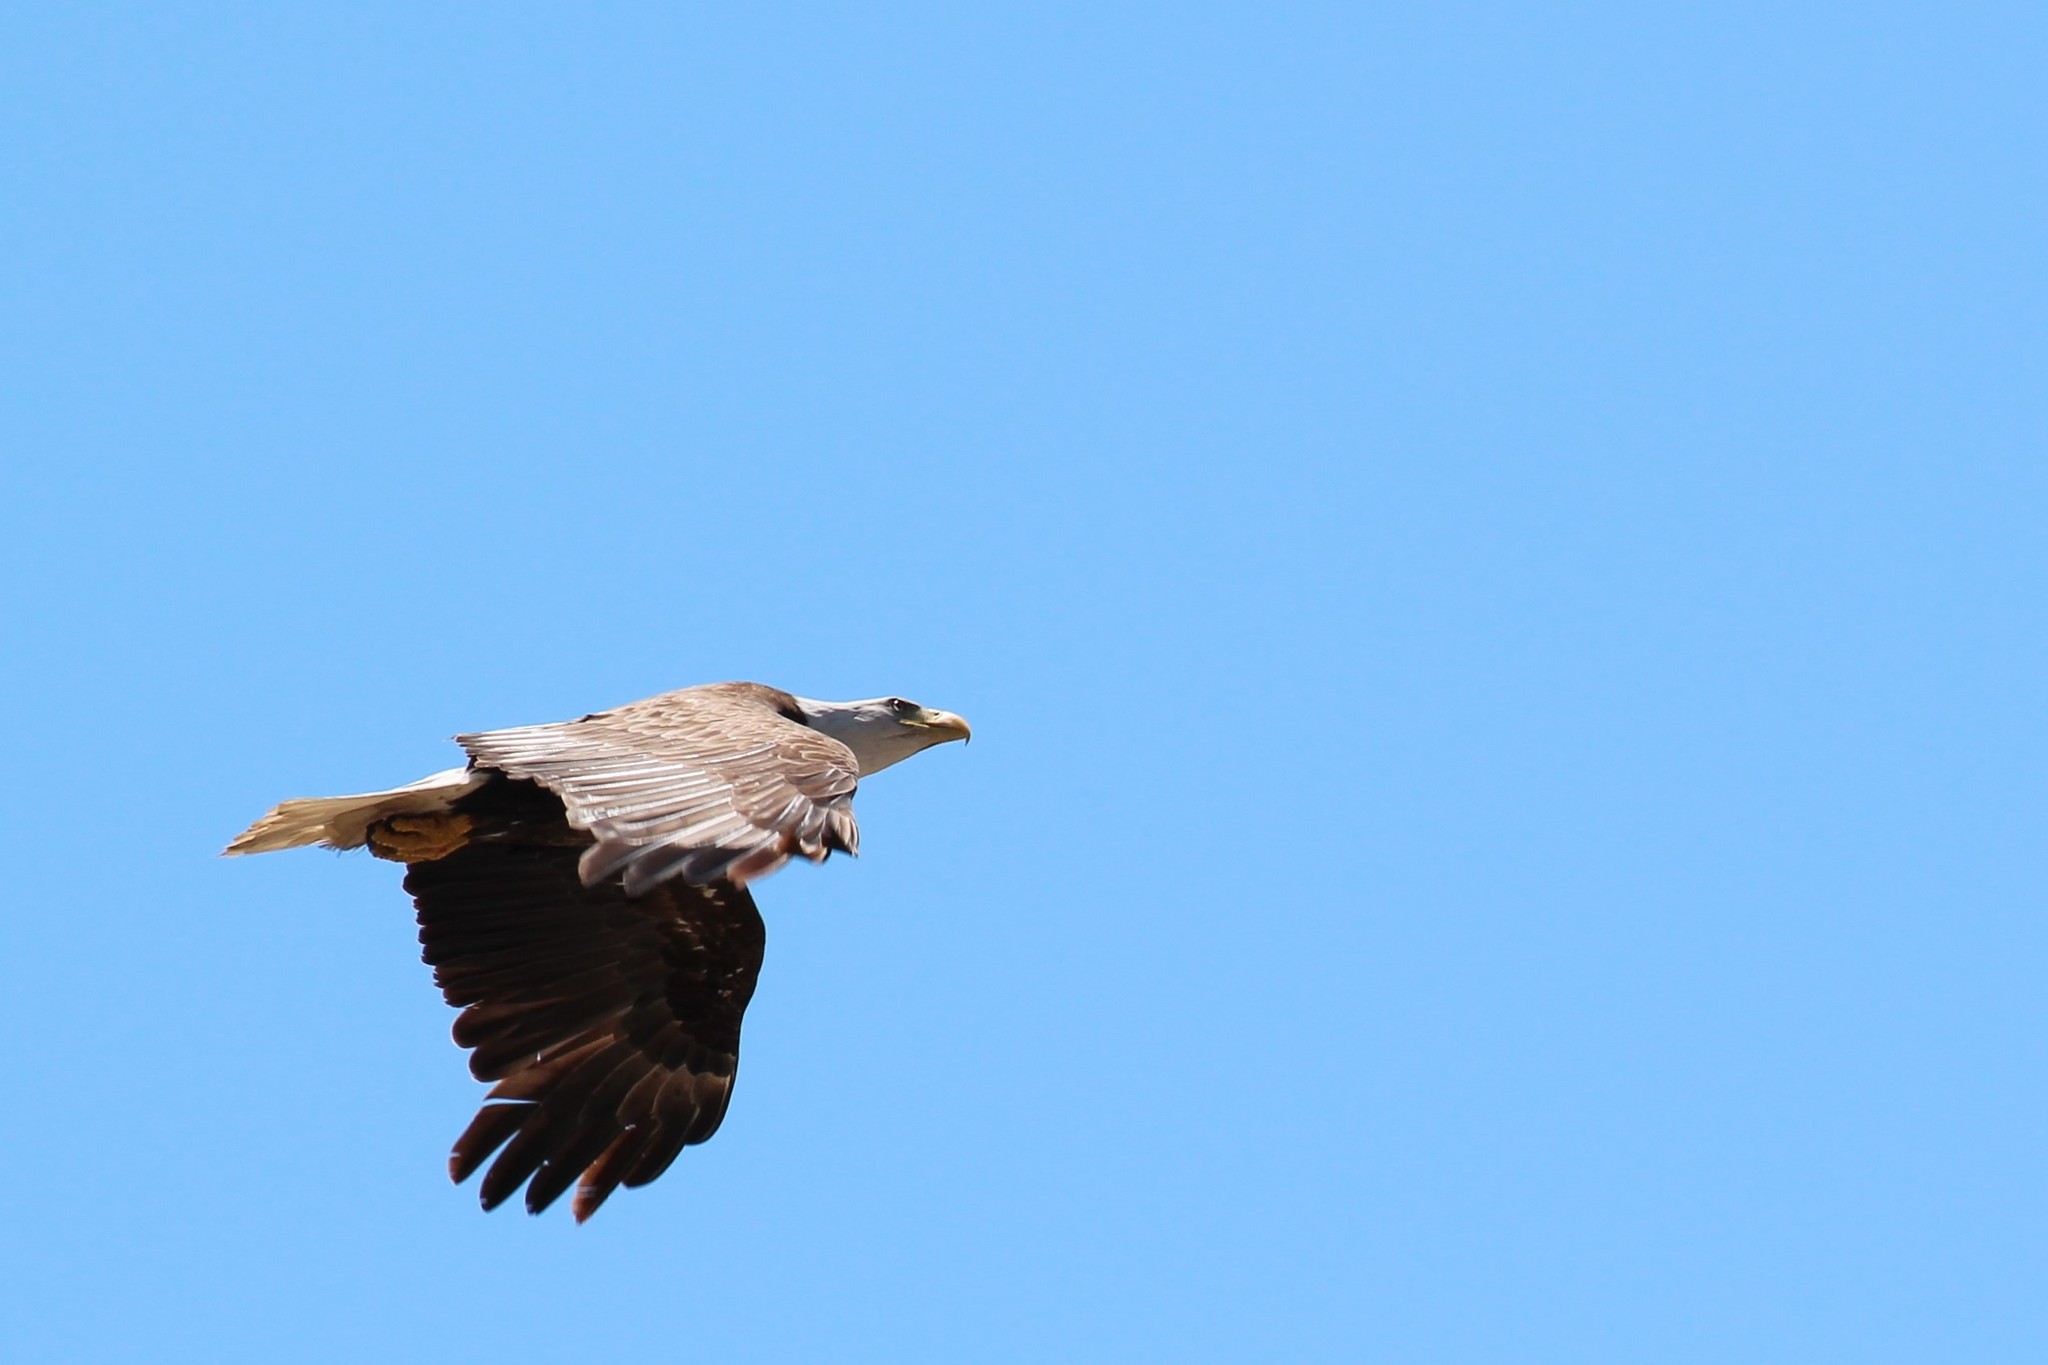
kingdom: Animalia
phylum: Chordata
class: Aves
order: Accipitriformes
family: Accipitridae
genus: Haliaeetus
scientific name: Haliaeetus leucocephalus
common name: Bald eagle
